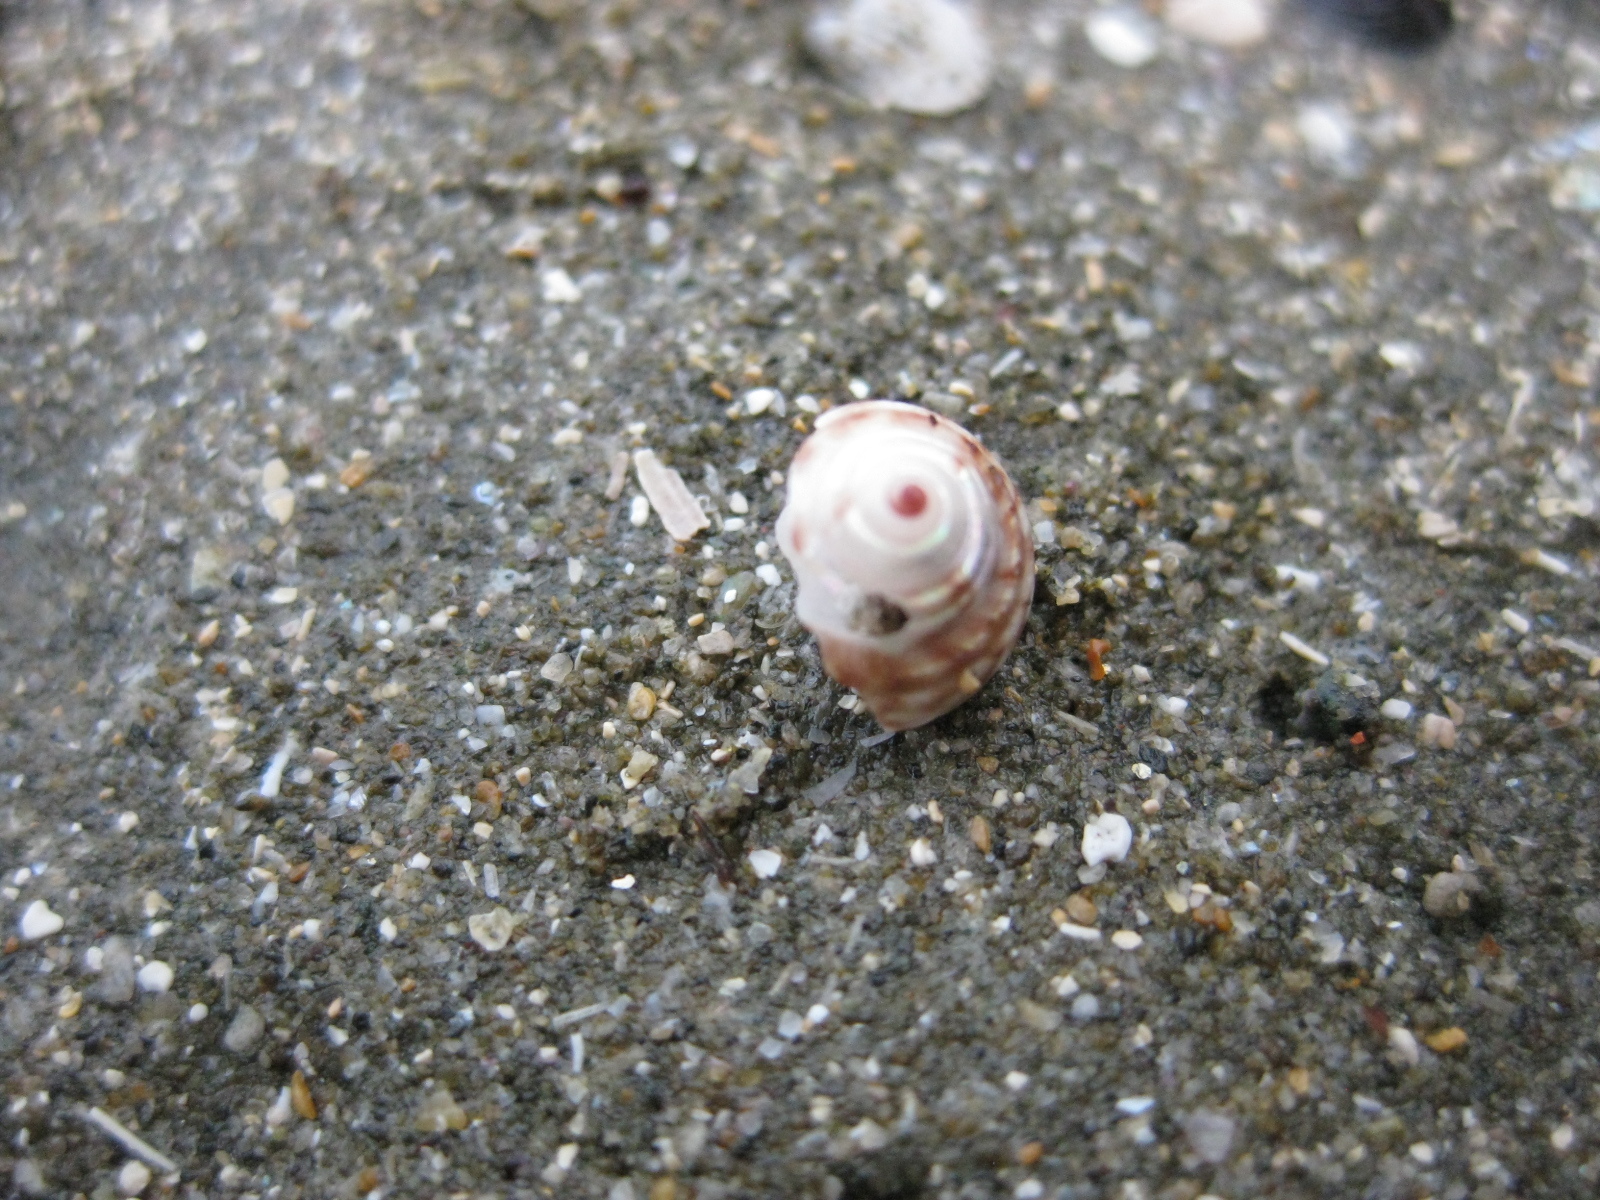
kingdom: Animalia
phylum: Mollusca
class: Gastropoda
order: Trochida
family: Trochidae
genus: Antisolarium
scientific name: Antisolarium egenum
